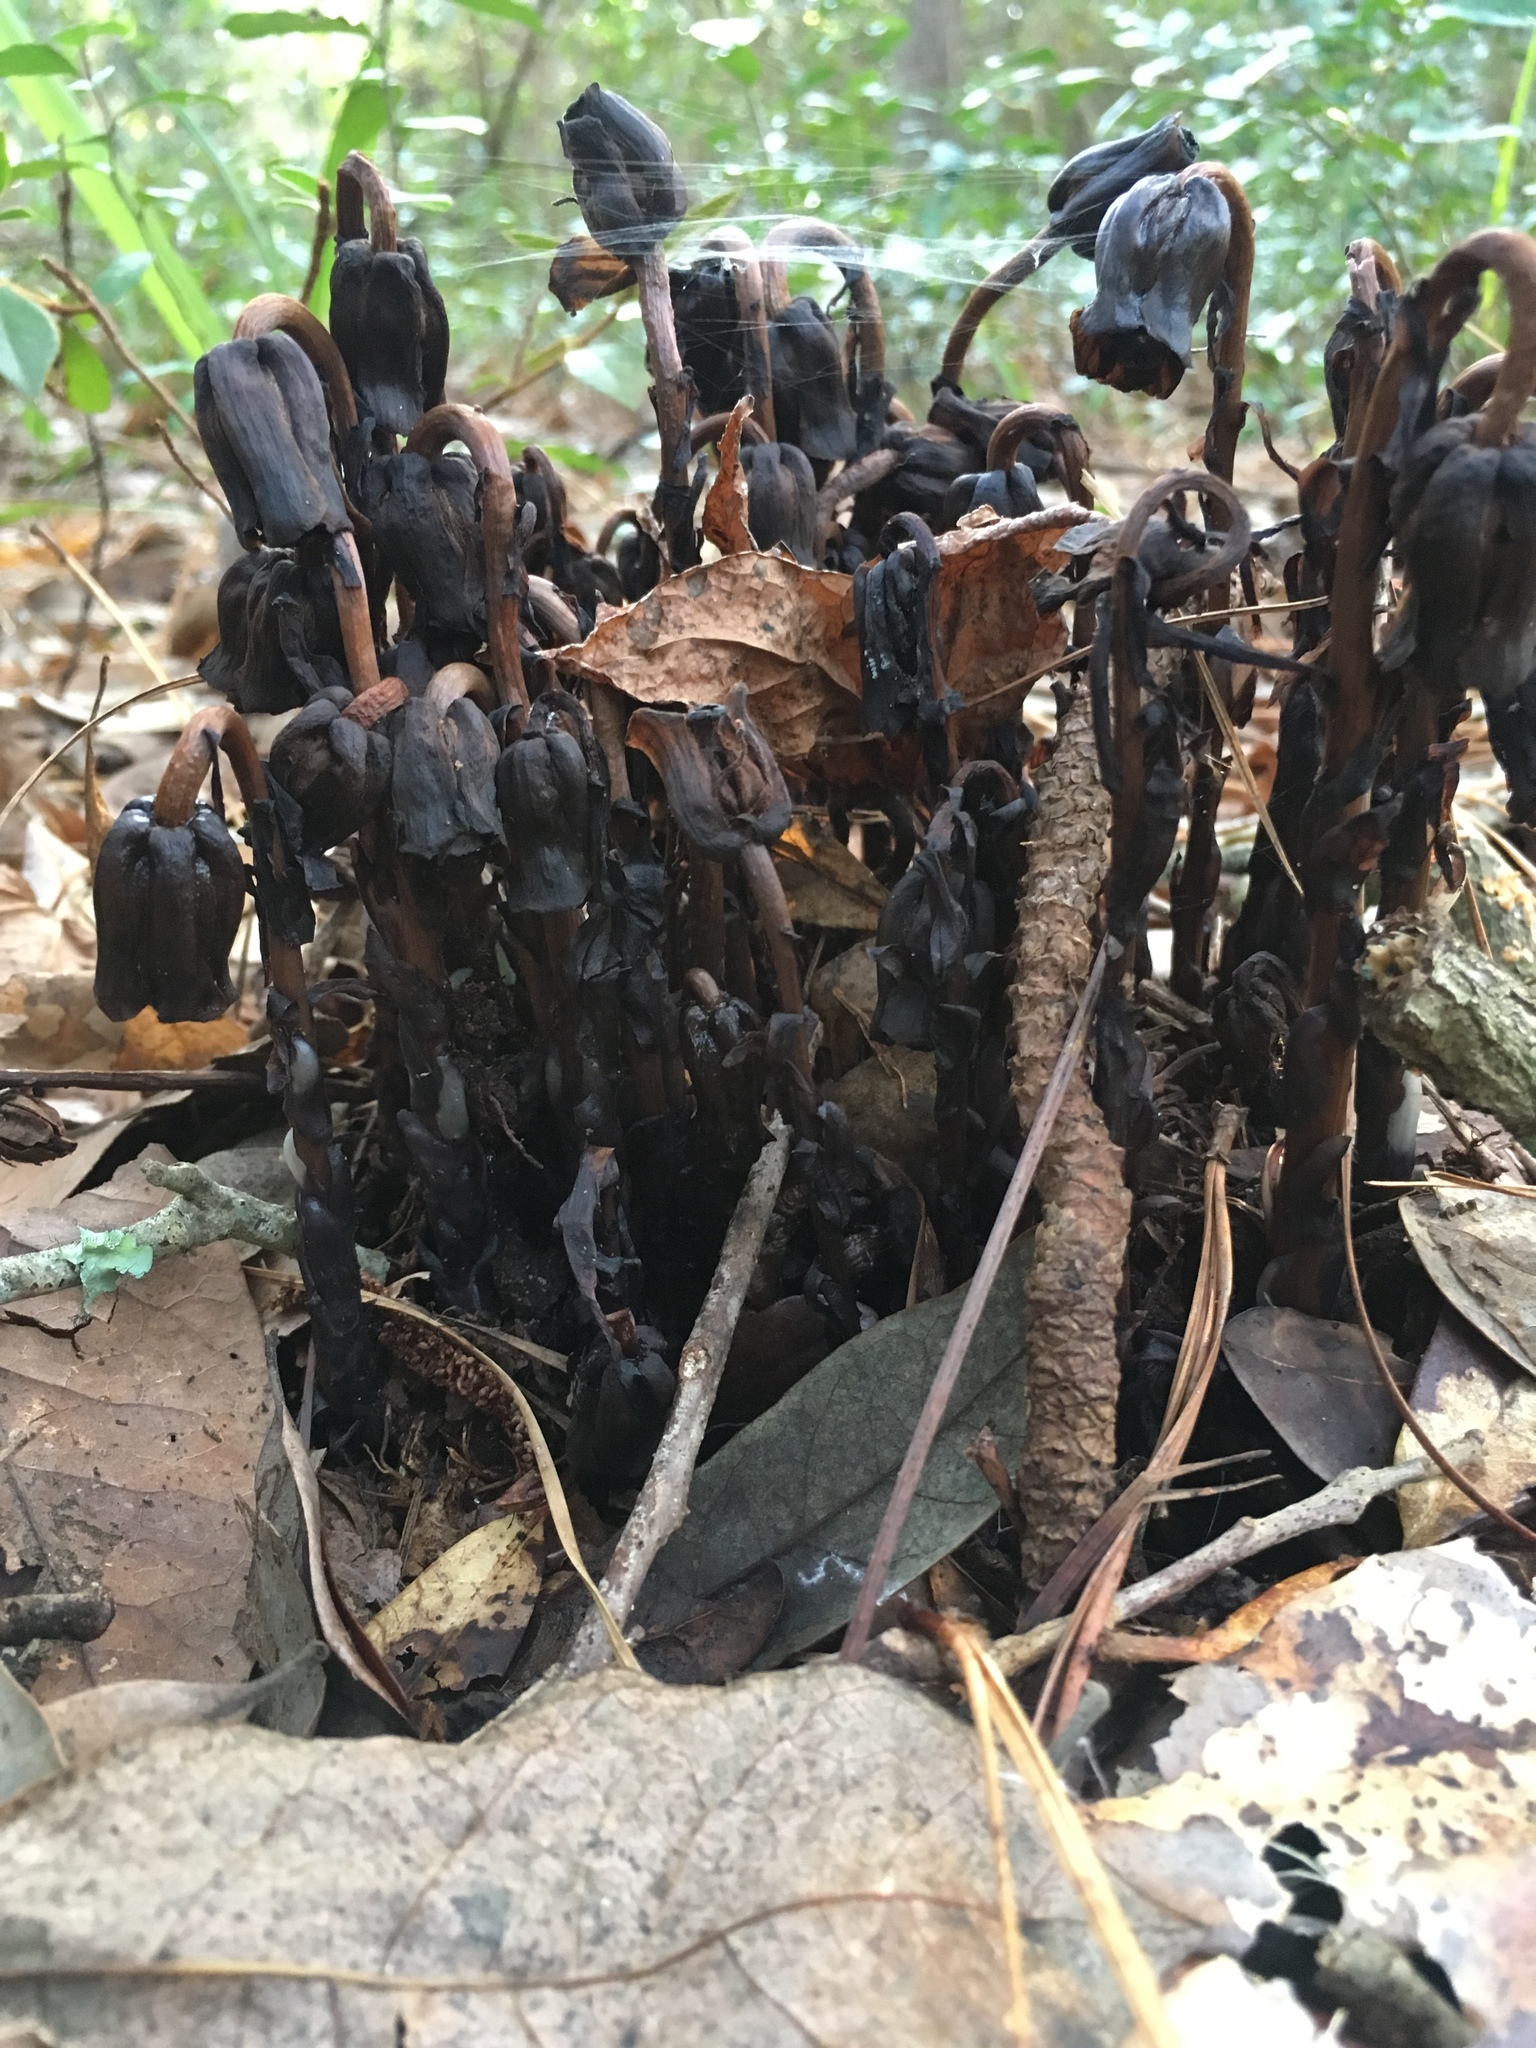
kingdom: Plantae
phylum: Tracheophyta
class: Magnoliopsida
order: Ericales
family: Ericaceae
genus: Monotropa
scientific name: Monotropa uniflora
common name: Convulsion root
